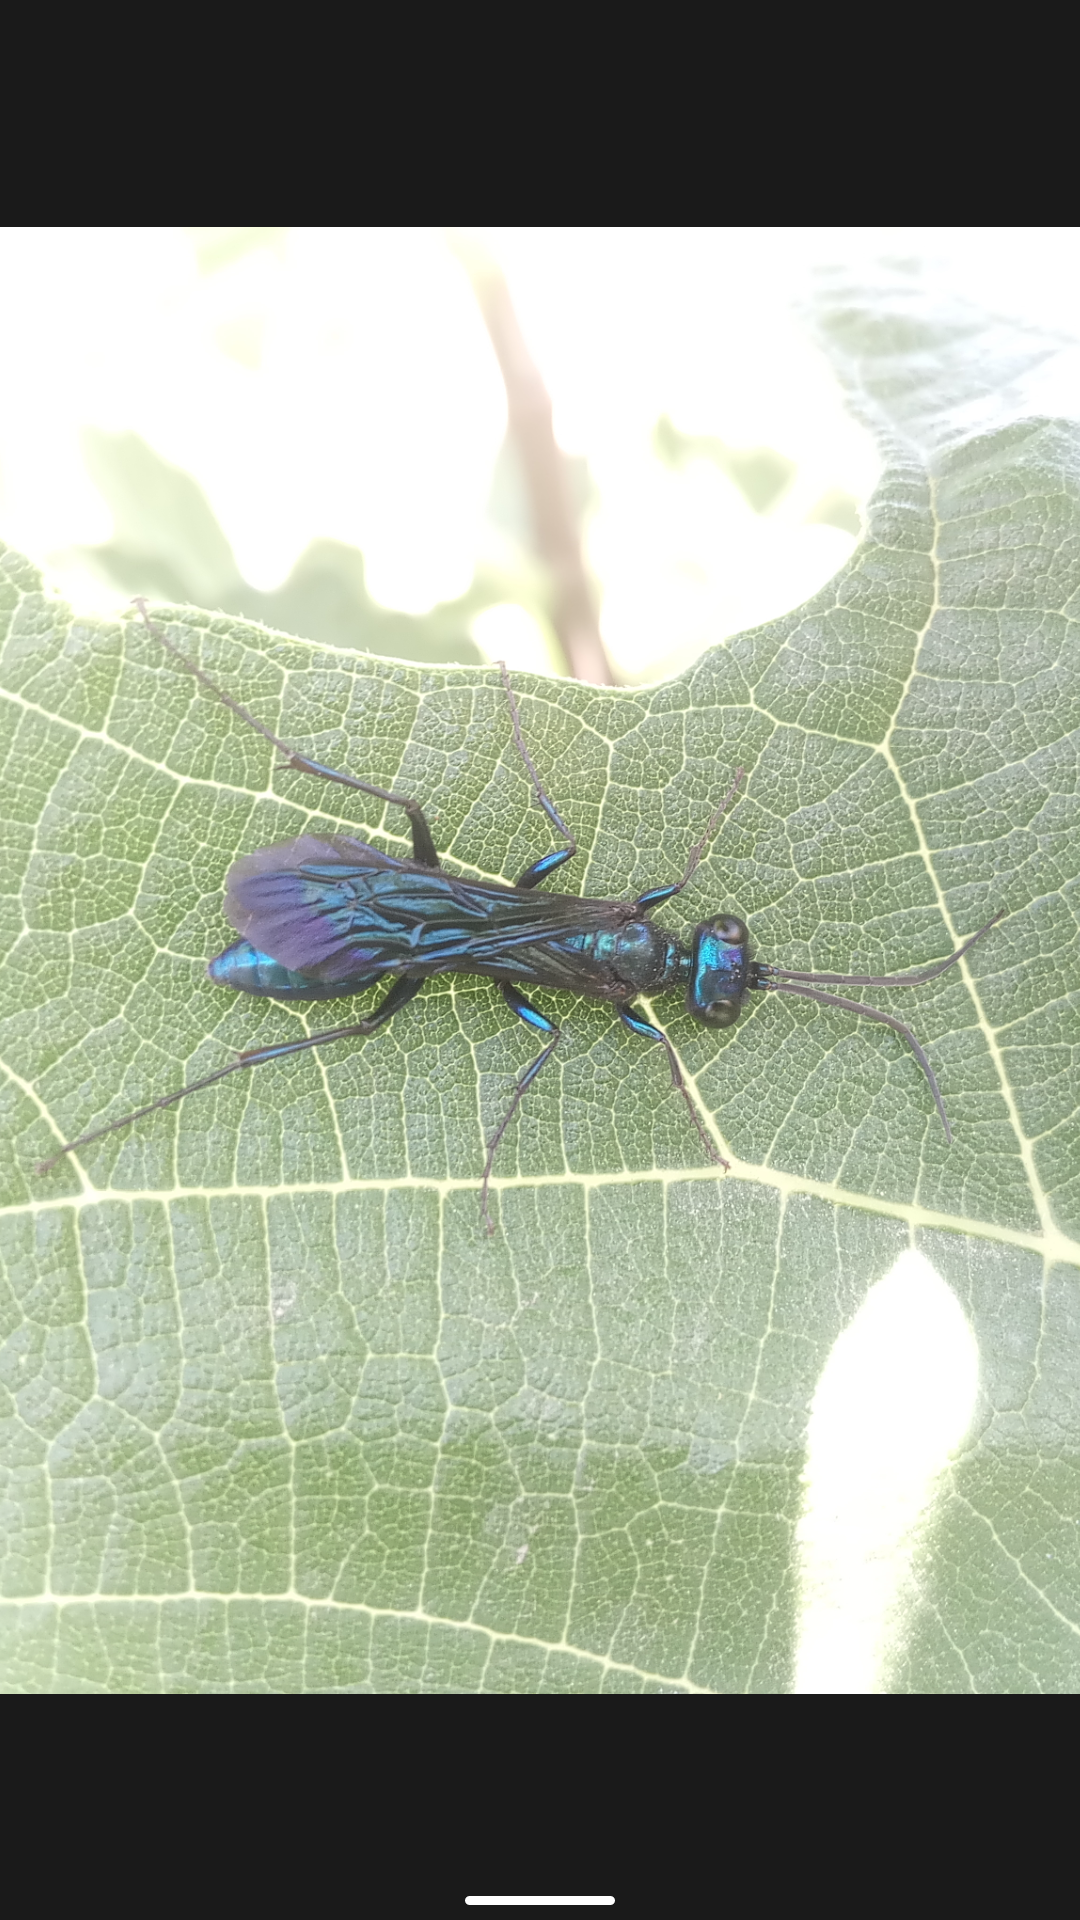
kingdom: Animalia
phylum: Arthropoda
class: Insecta
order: Hymenoptera
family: Sphecidae
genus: Chlorion
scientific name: Chlorion aerarium
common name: Steel-blue cricket hunter
